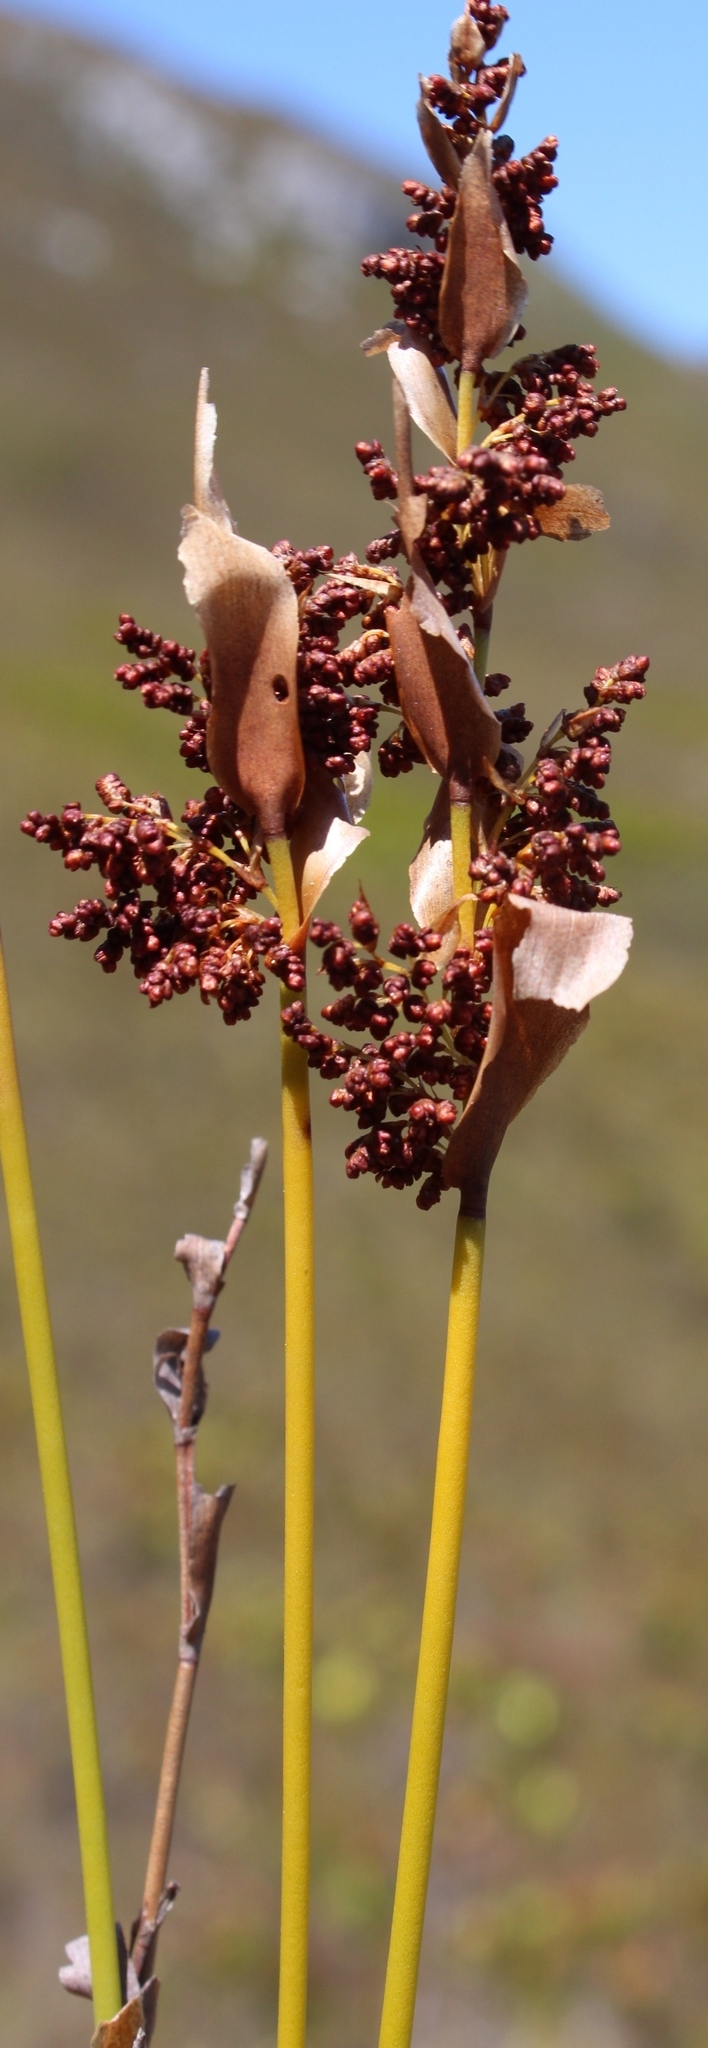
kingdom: Plantae
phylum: Tracheophyta
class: Liliopsida
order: Poales
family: Restionaceae
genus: Elegia
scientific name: Elegia spathacea
